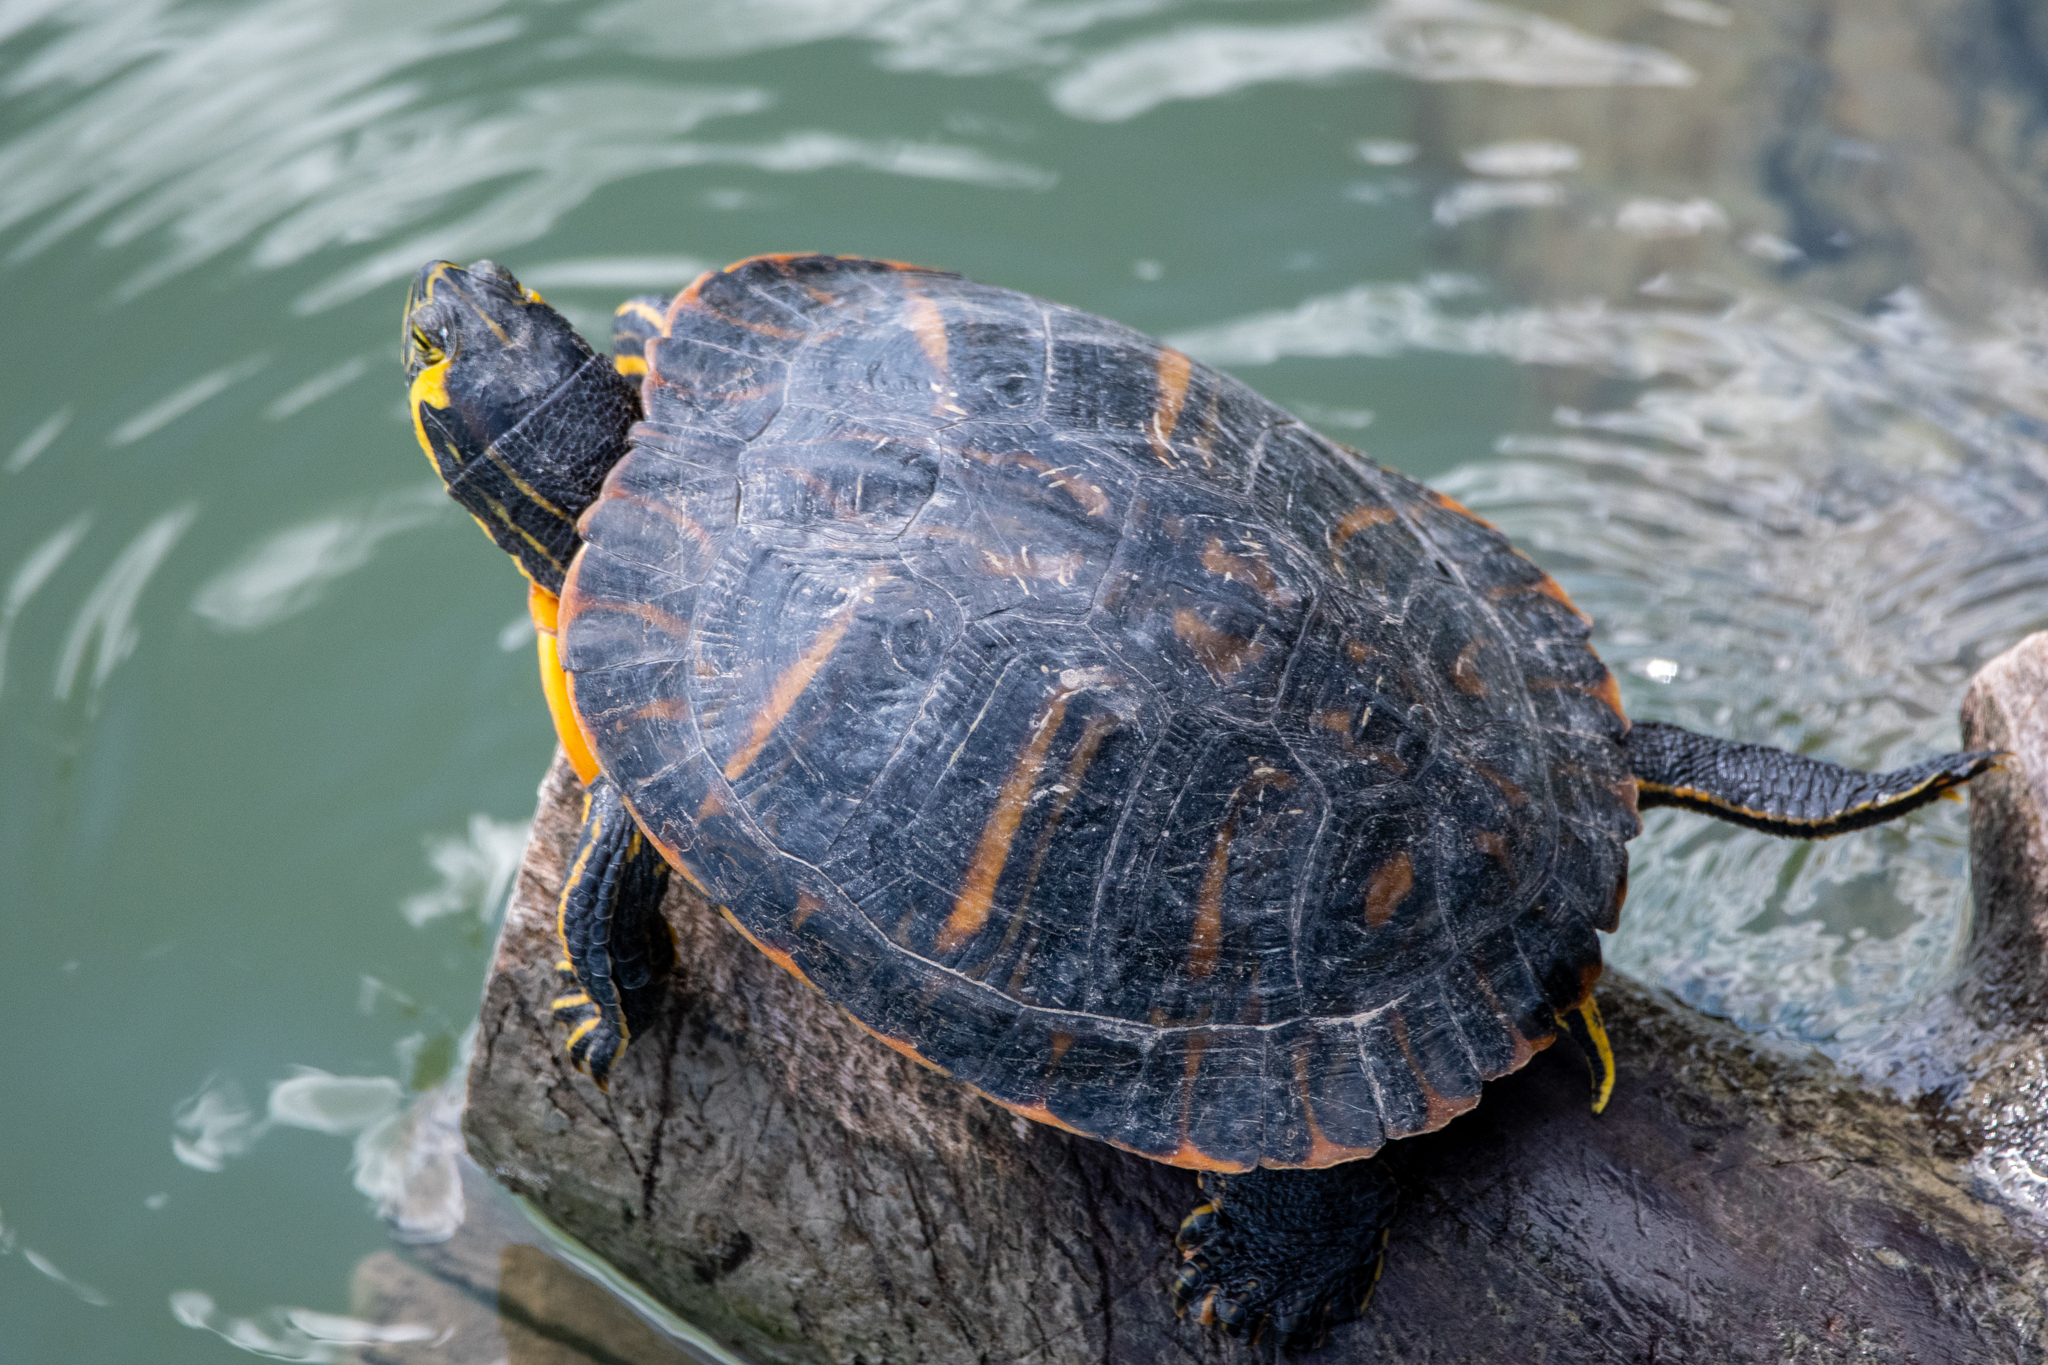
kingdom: Animalia
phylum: Chordata
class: Testudines
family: Emydidae
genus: Trachemys
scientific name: Trachemys scripta
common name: Slider
